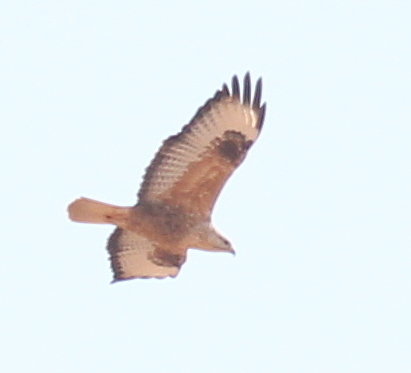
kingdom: Animalia
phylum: Chordata
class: Aves
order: Accipitriformes
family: Accipitridae
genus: Buteo
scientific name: Buteo rufinus
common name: Long-legged buzzard
